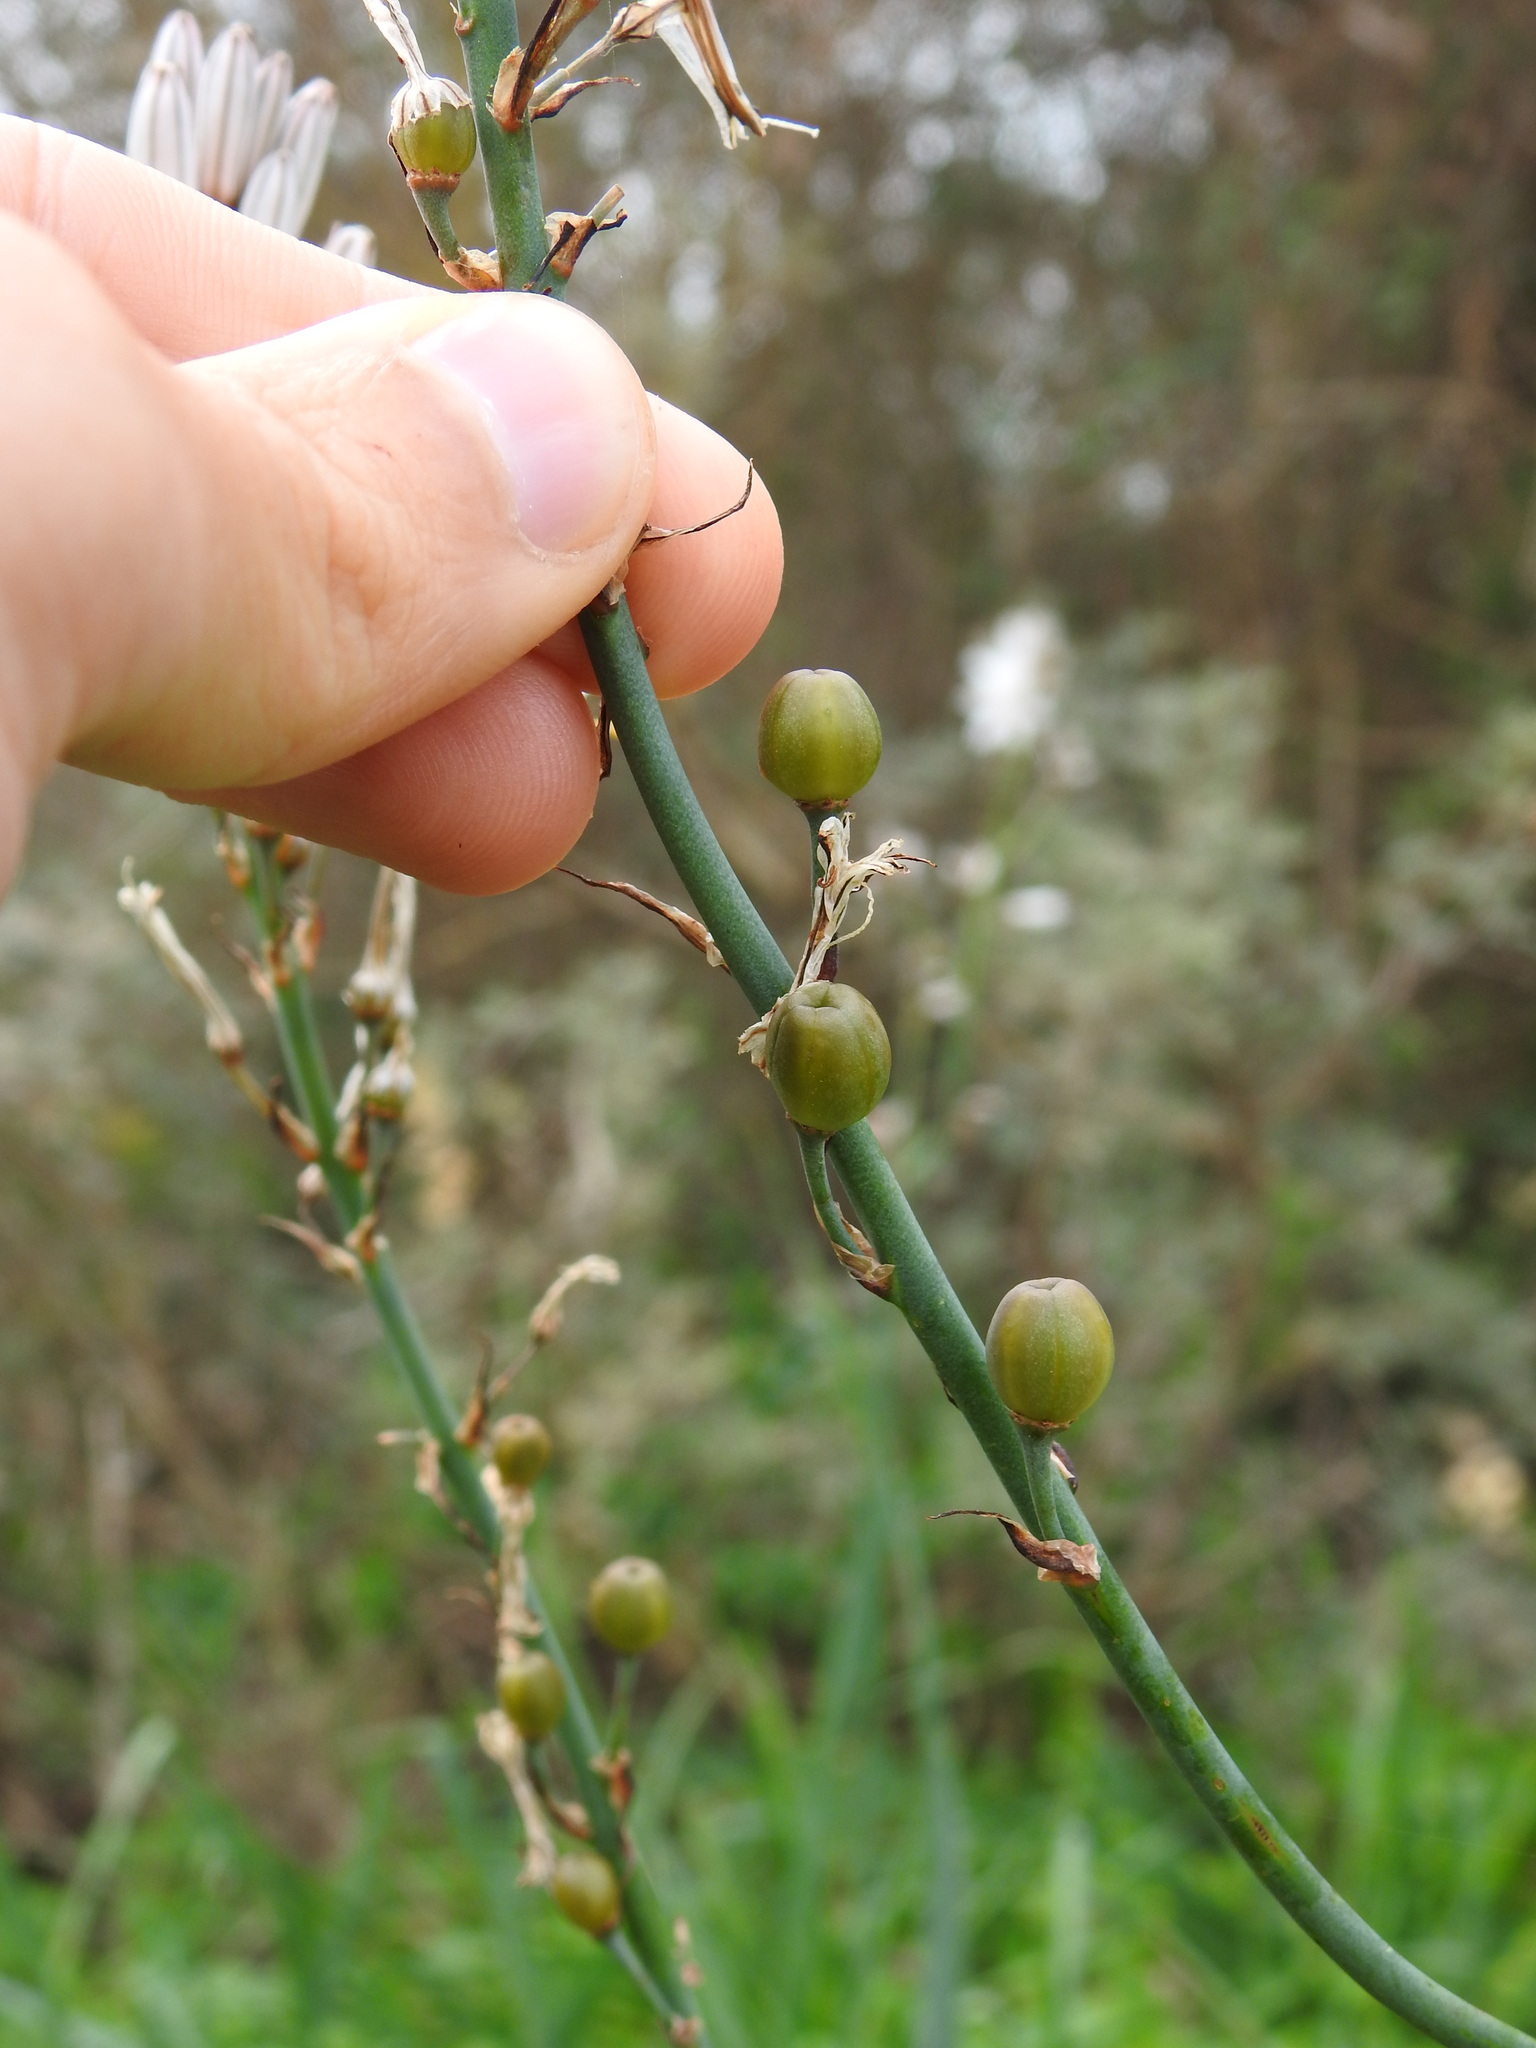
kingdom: Plantae
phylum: Tracheophyta
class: Liliopsida
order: Asparagales
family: Asphodelaceae
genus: Asphodelus
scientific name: Asphodelus ramosus
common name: Silverrod
